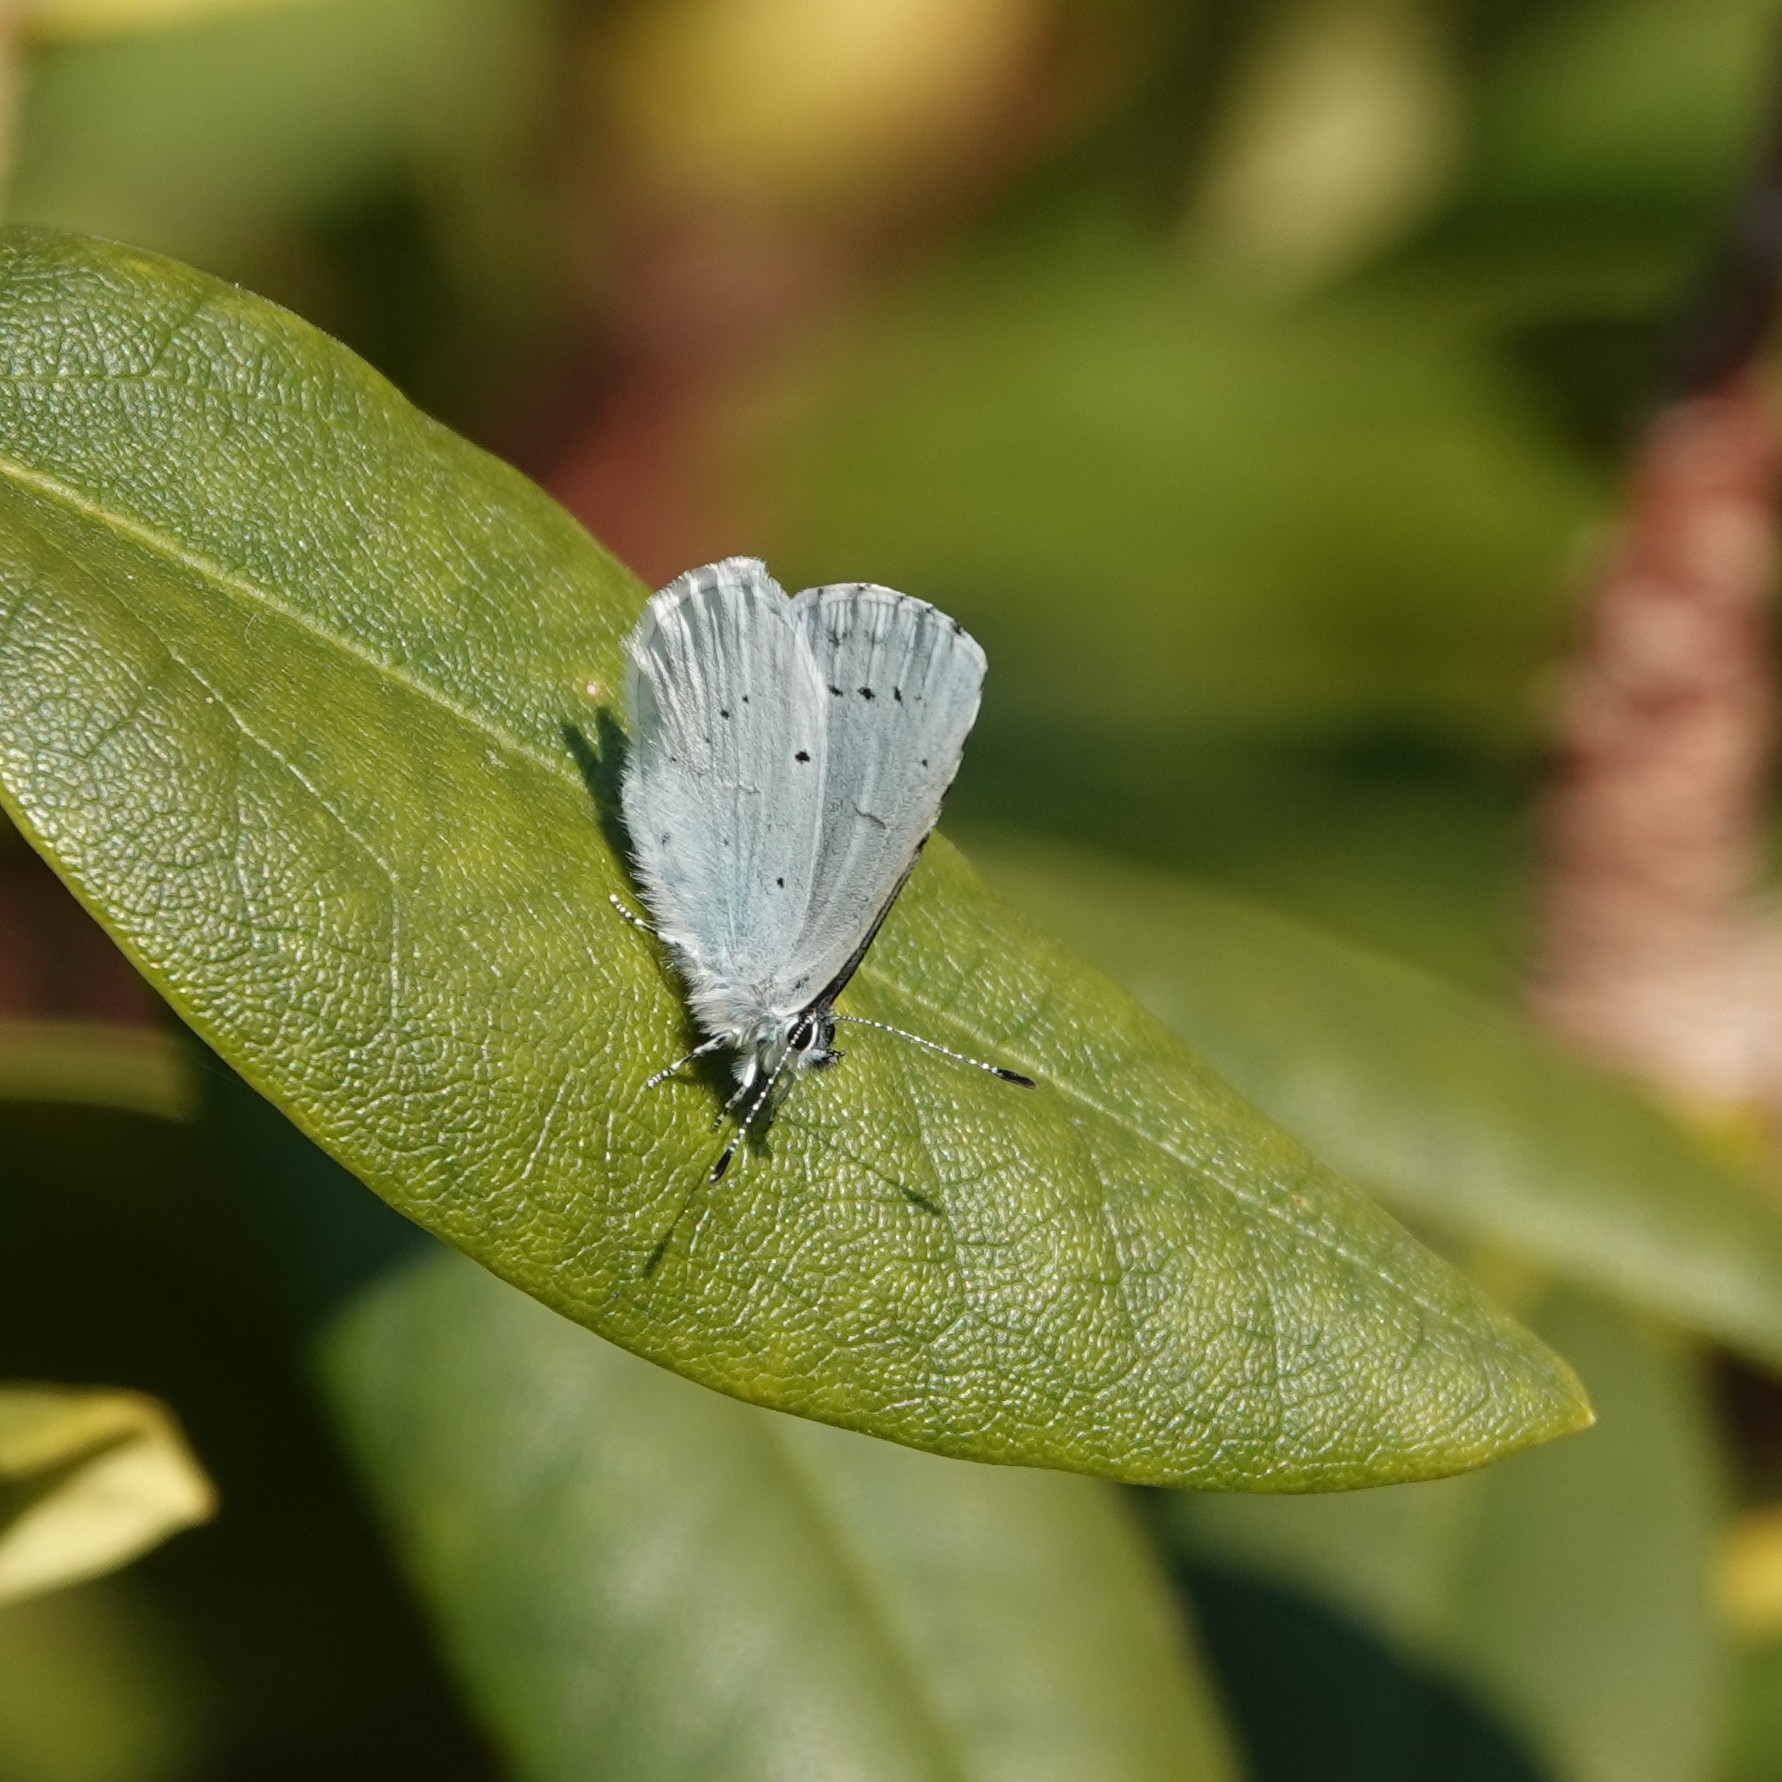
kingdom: Animalia
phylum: Arthropoda
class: Insecta
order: Lepidoptera
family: Lycaenidae
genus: Celastrina
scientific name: Celastrina argiolus
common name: Holly blue
